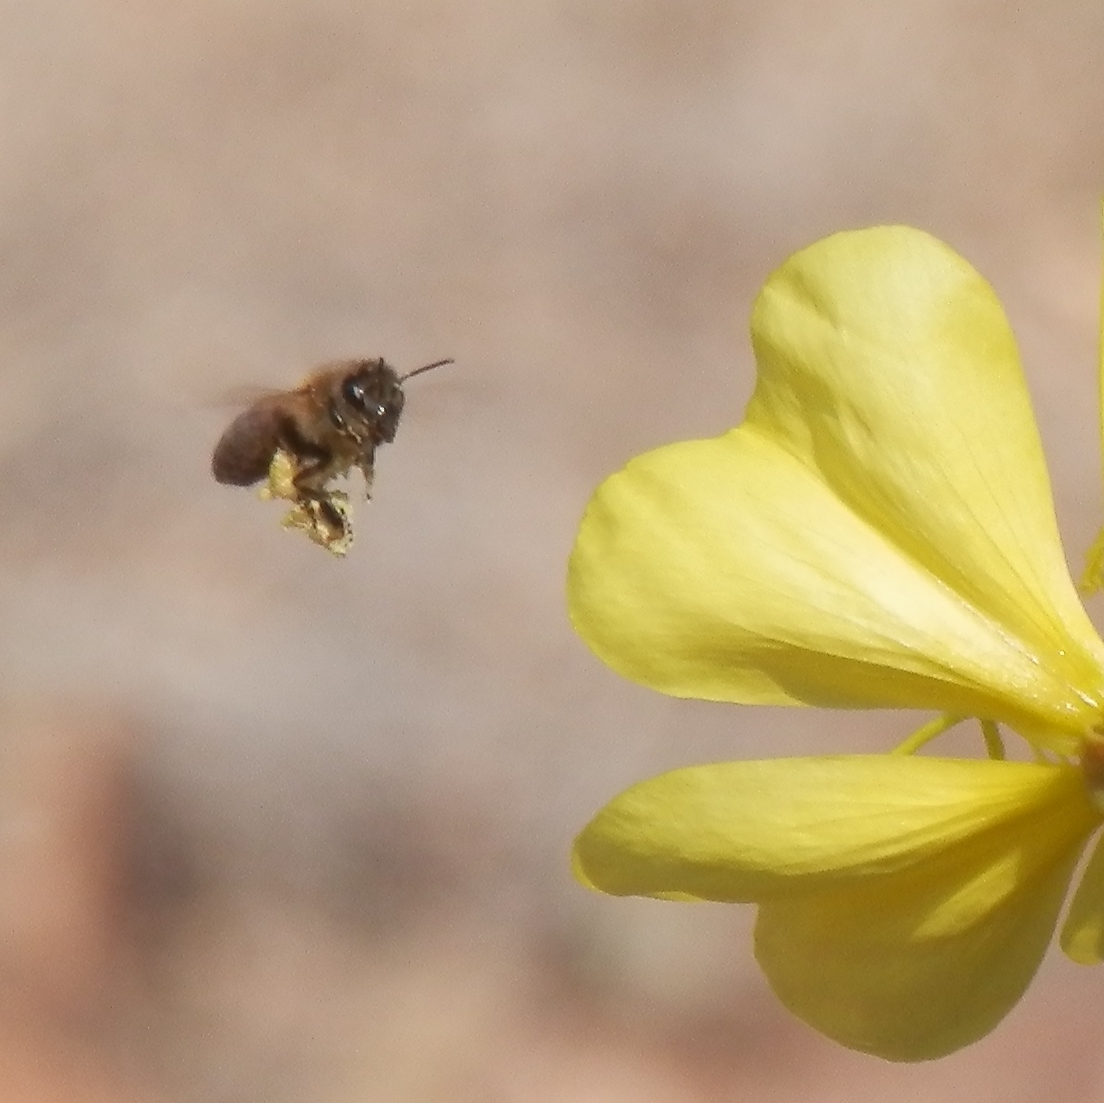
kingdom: Animalia
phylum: Arthropoda
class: Insecta
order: Hymenoptera
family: Apidae
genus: Apis
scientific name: Apis mellifera
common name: Honey bee
